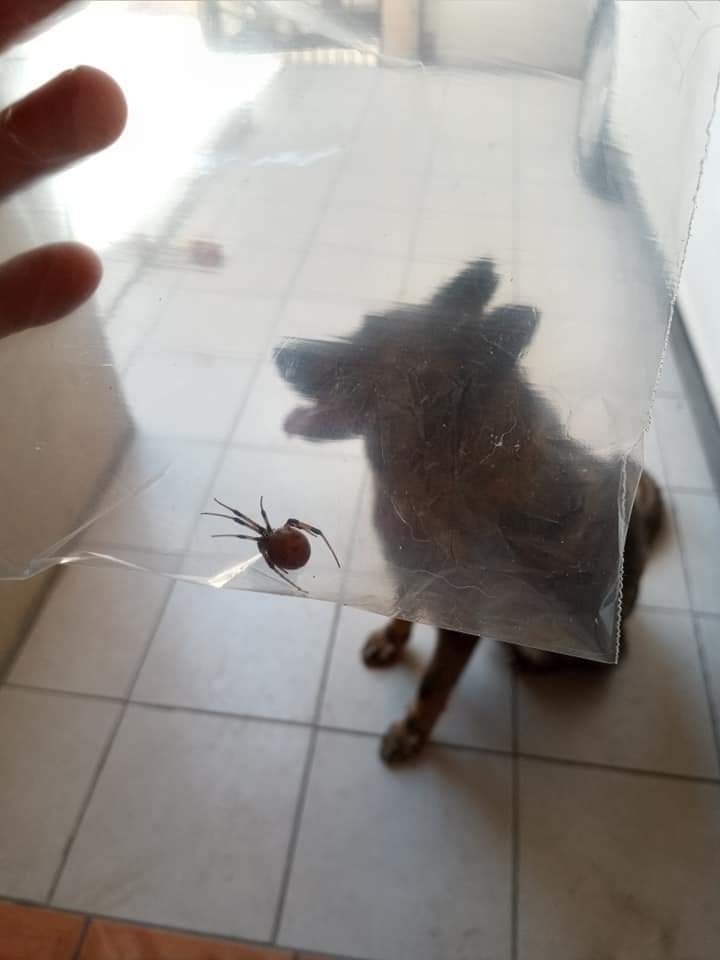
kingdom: Animalia
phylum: Arthropoda
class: Arachnida
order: Araneae
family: Theridiidae
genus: Latrodectus
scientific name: Latrodectus geometricus
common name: Brown widow spider
